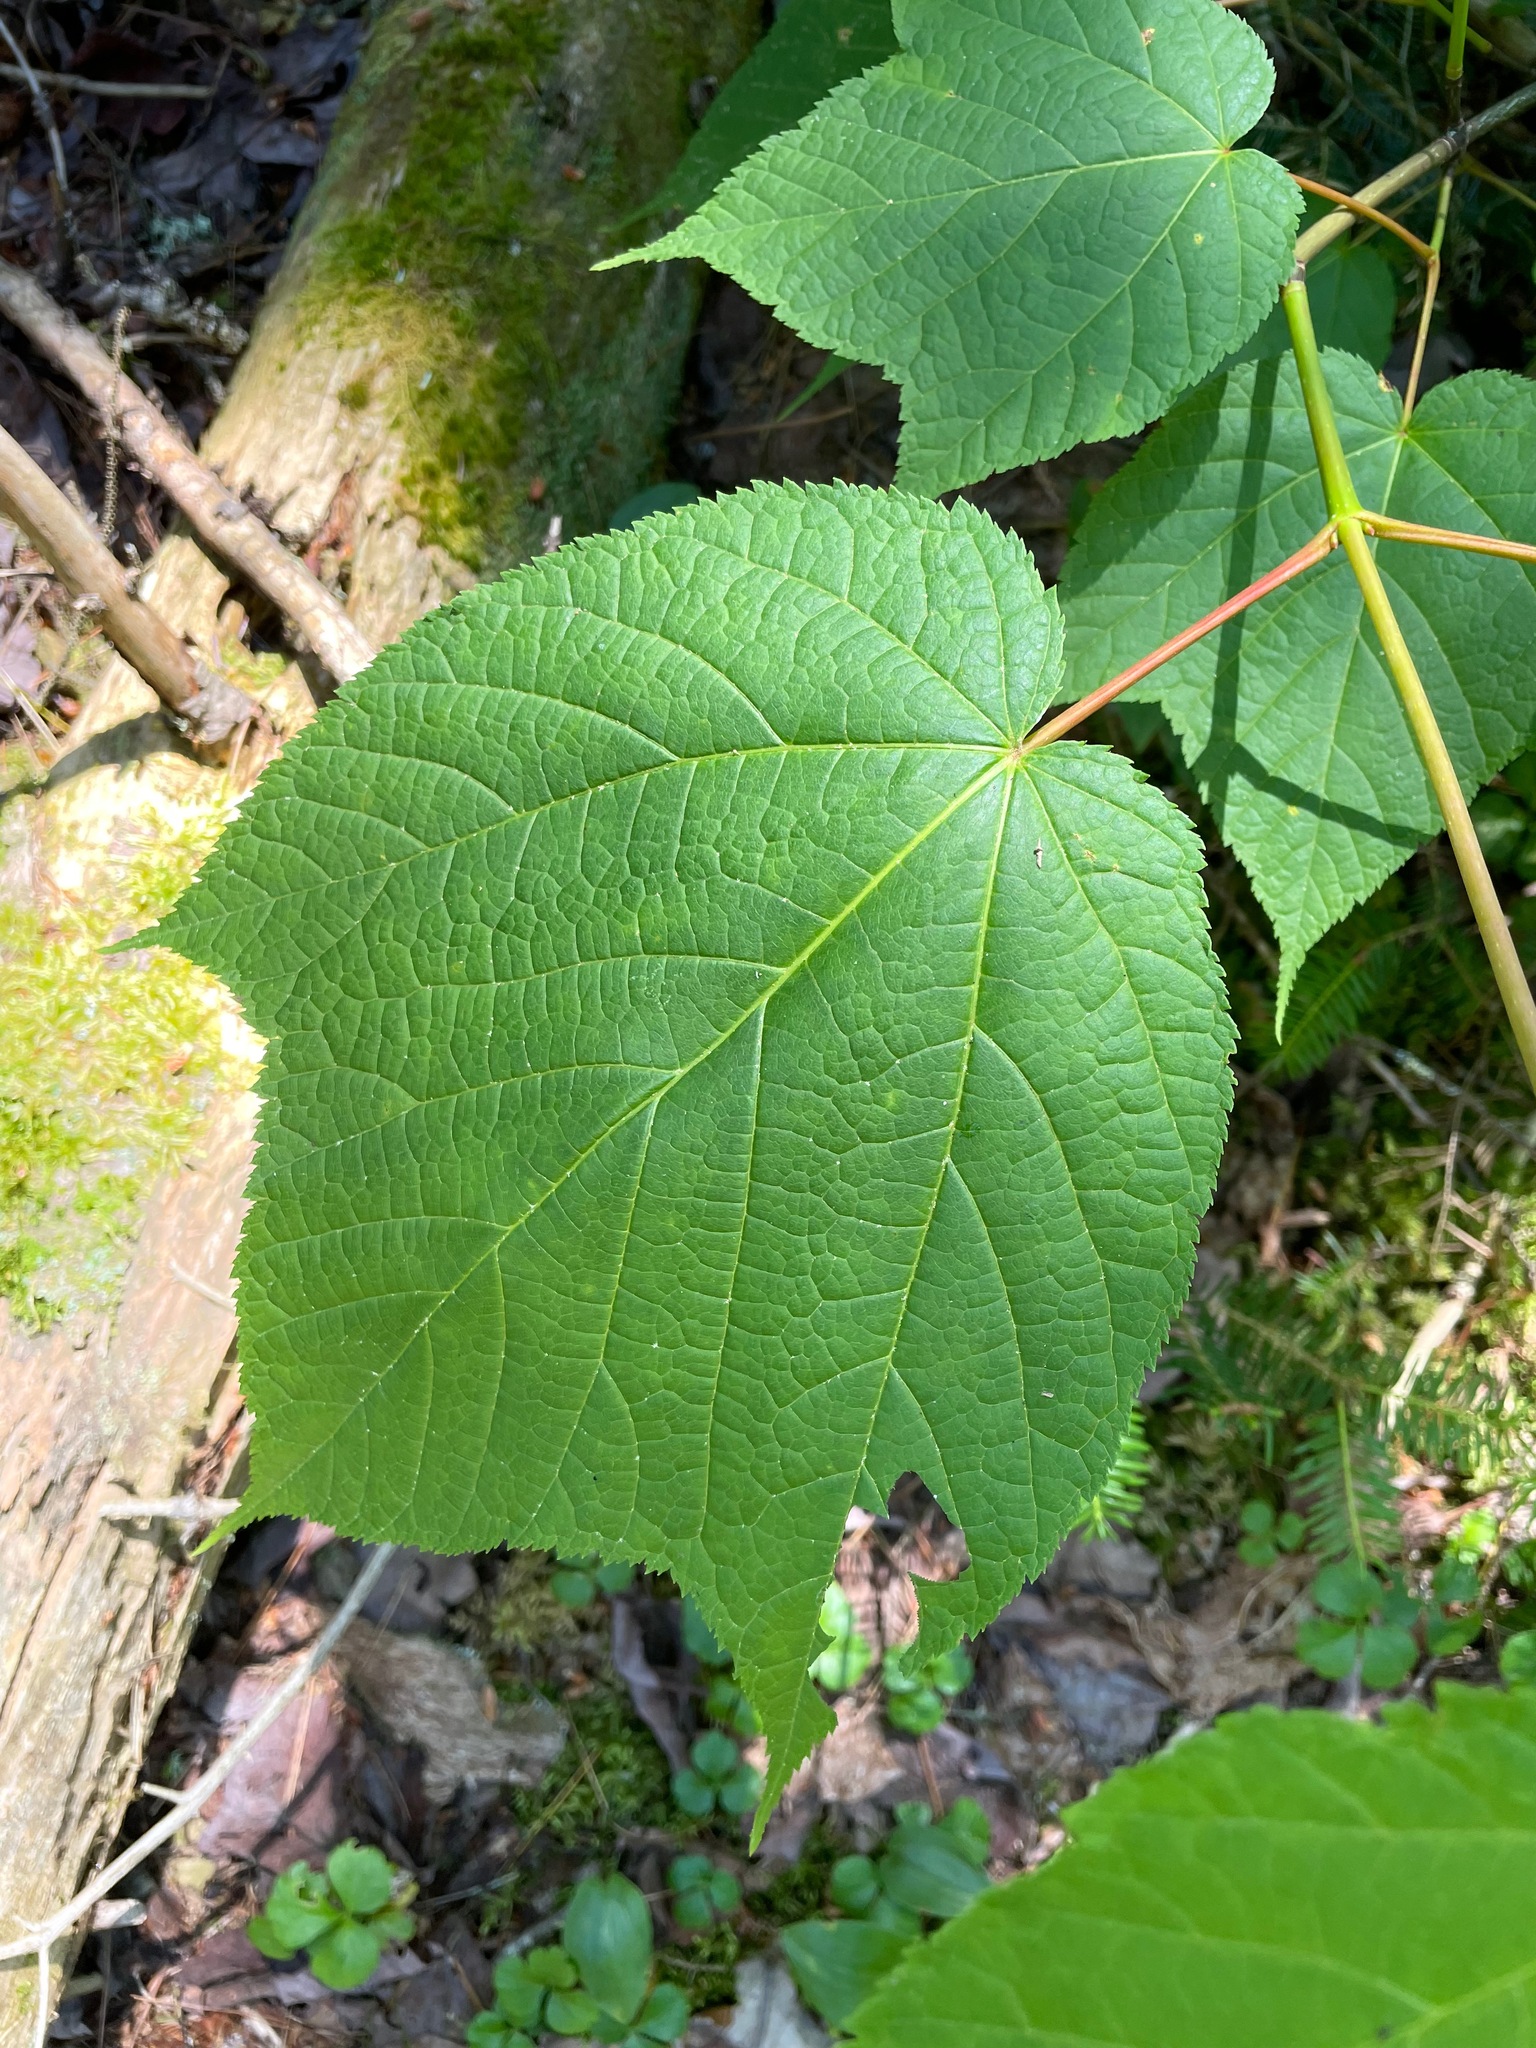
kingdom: Plantae
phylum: Tracheophyta
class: Magnoliopsida
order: Sapindales
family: Sapindaceae
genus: Acer
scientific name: Acer pensylvanicum
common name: Moosewood
